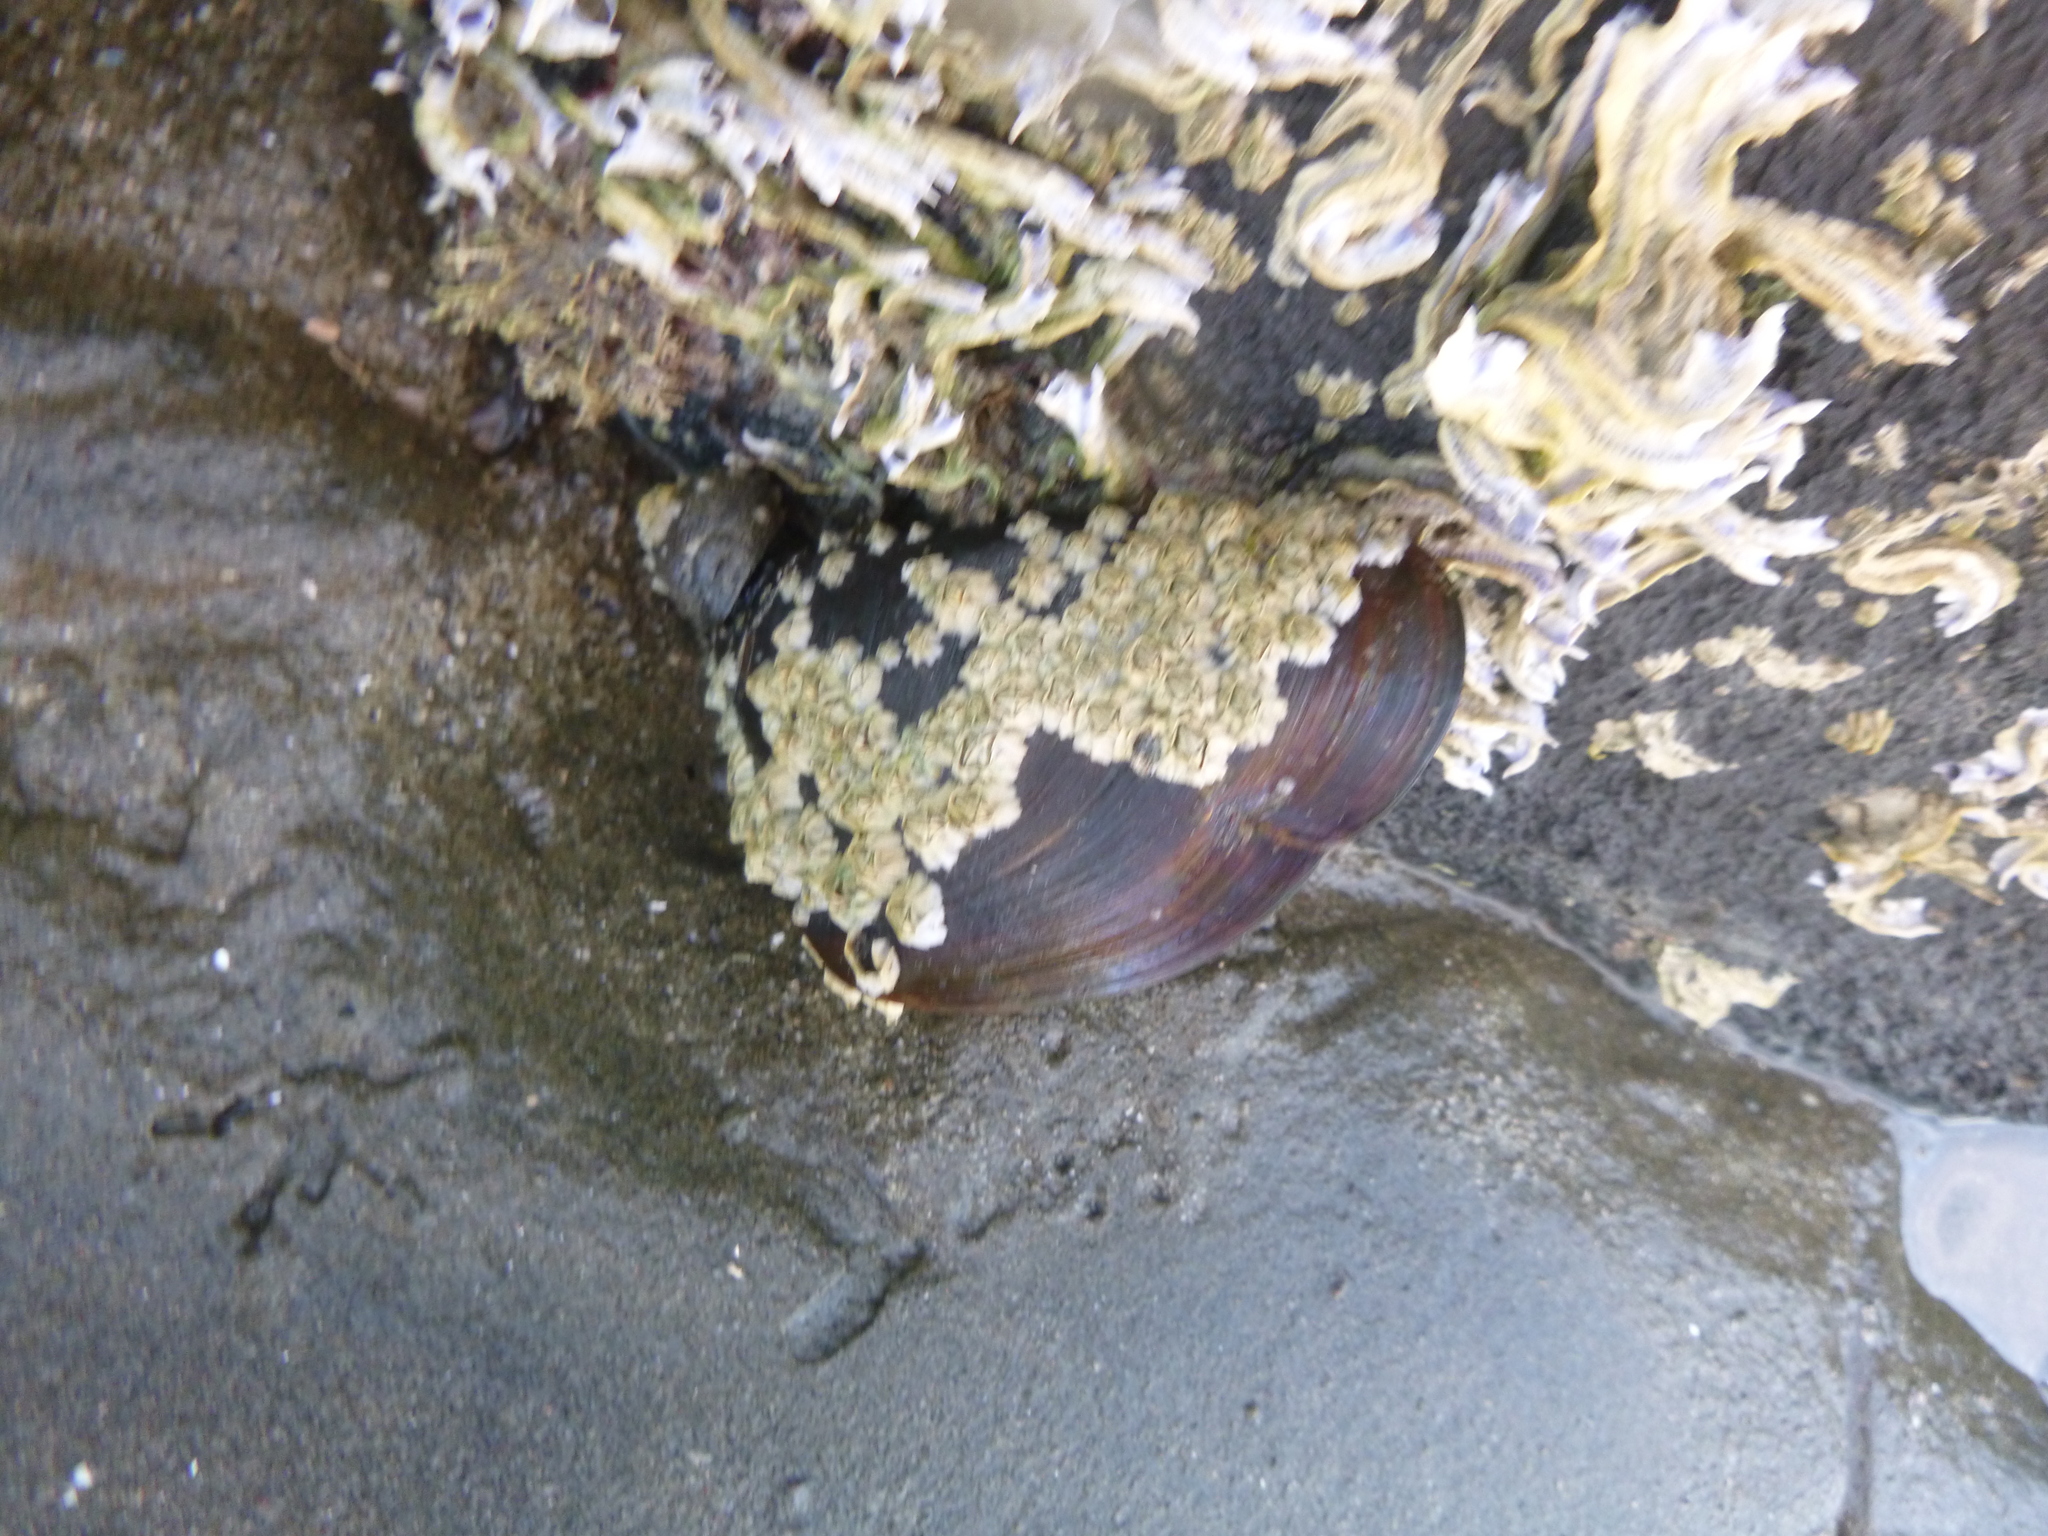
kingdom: Animalia
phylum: Mollusca
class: Bivalvia
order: Mytilida
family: Mytilidae
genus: Perna
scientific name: Perna canaliculus
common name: New zealand greenshelltm
